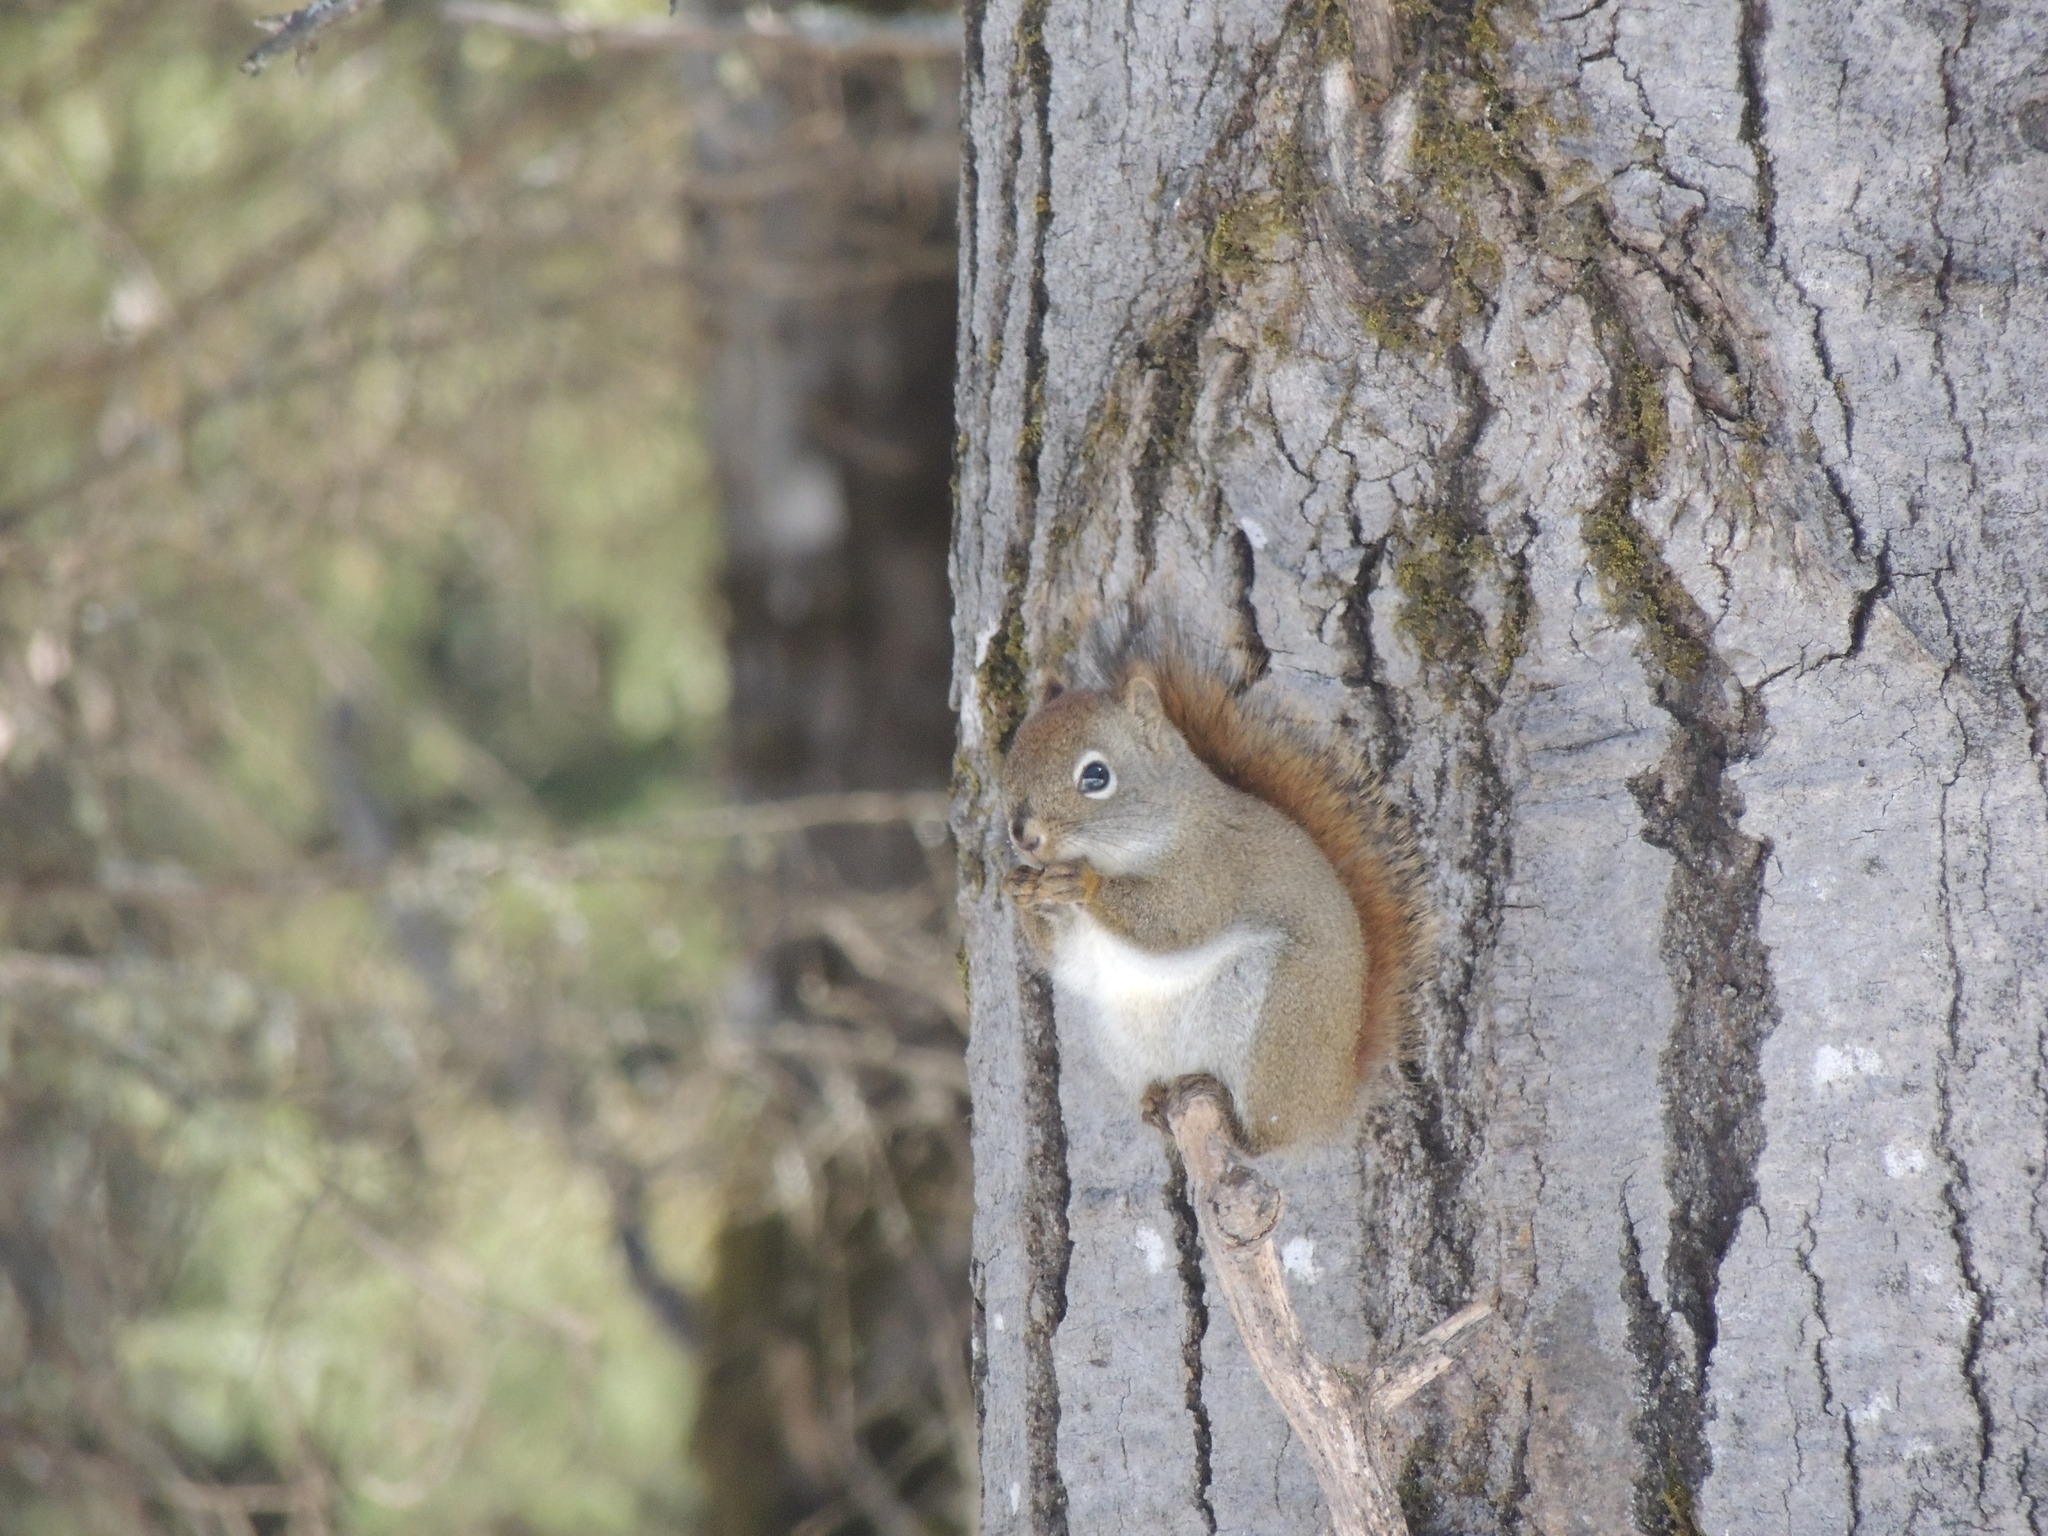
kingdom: Animalia
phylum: Chordata
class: Mammalia
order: Rodentia
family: Sciuridae
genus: Tamiasciurus
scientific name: Tamiasciurus hudsonicus
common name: Red squirrel
